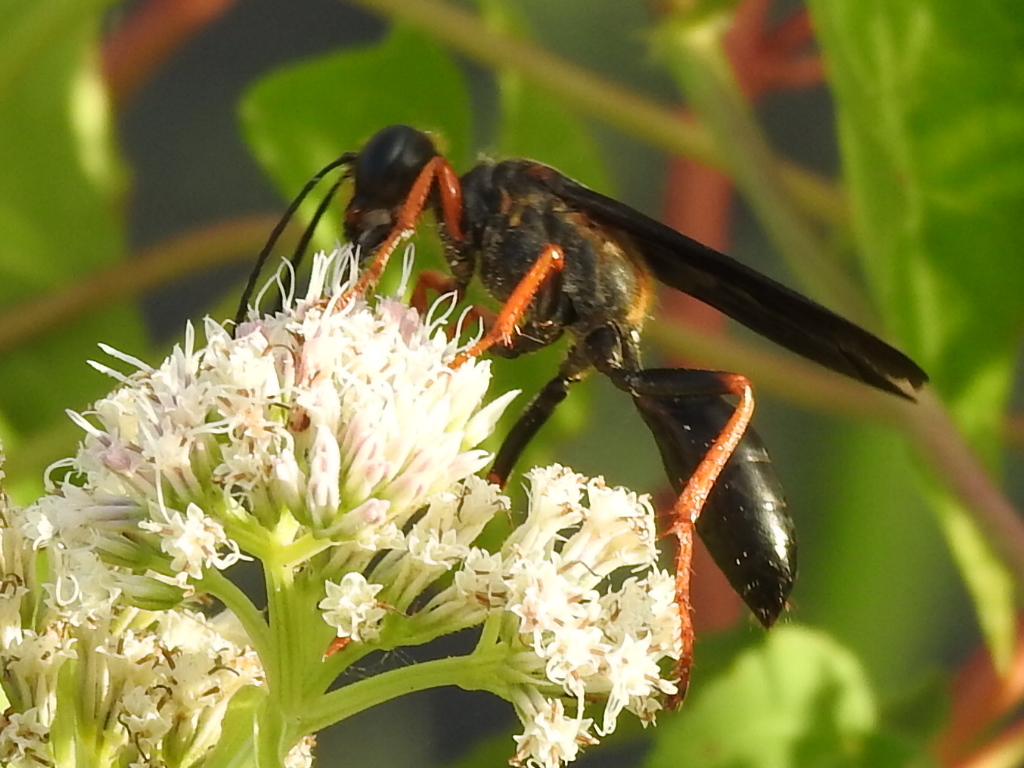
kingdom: Animalia
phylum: Arthropoda
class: Insecta
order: Hymenoptera
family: Sphecidae
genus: Sphex
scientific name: Sphex nudus
